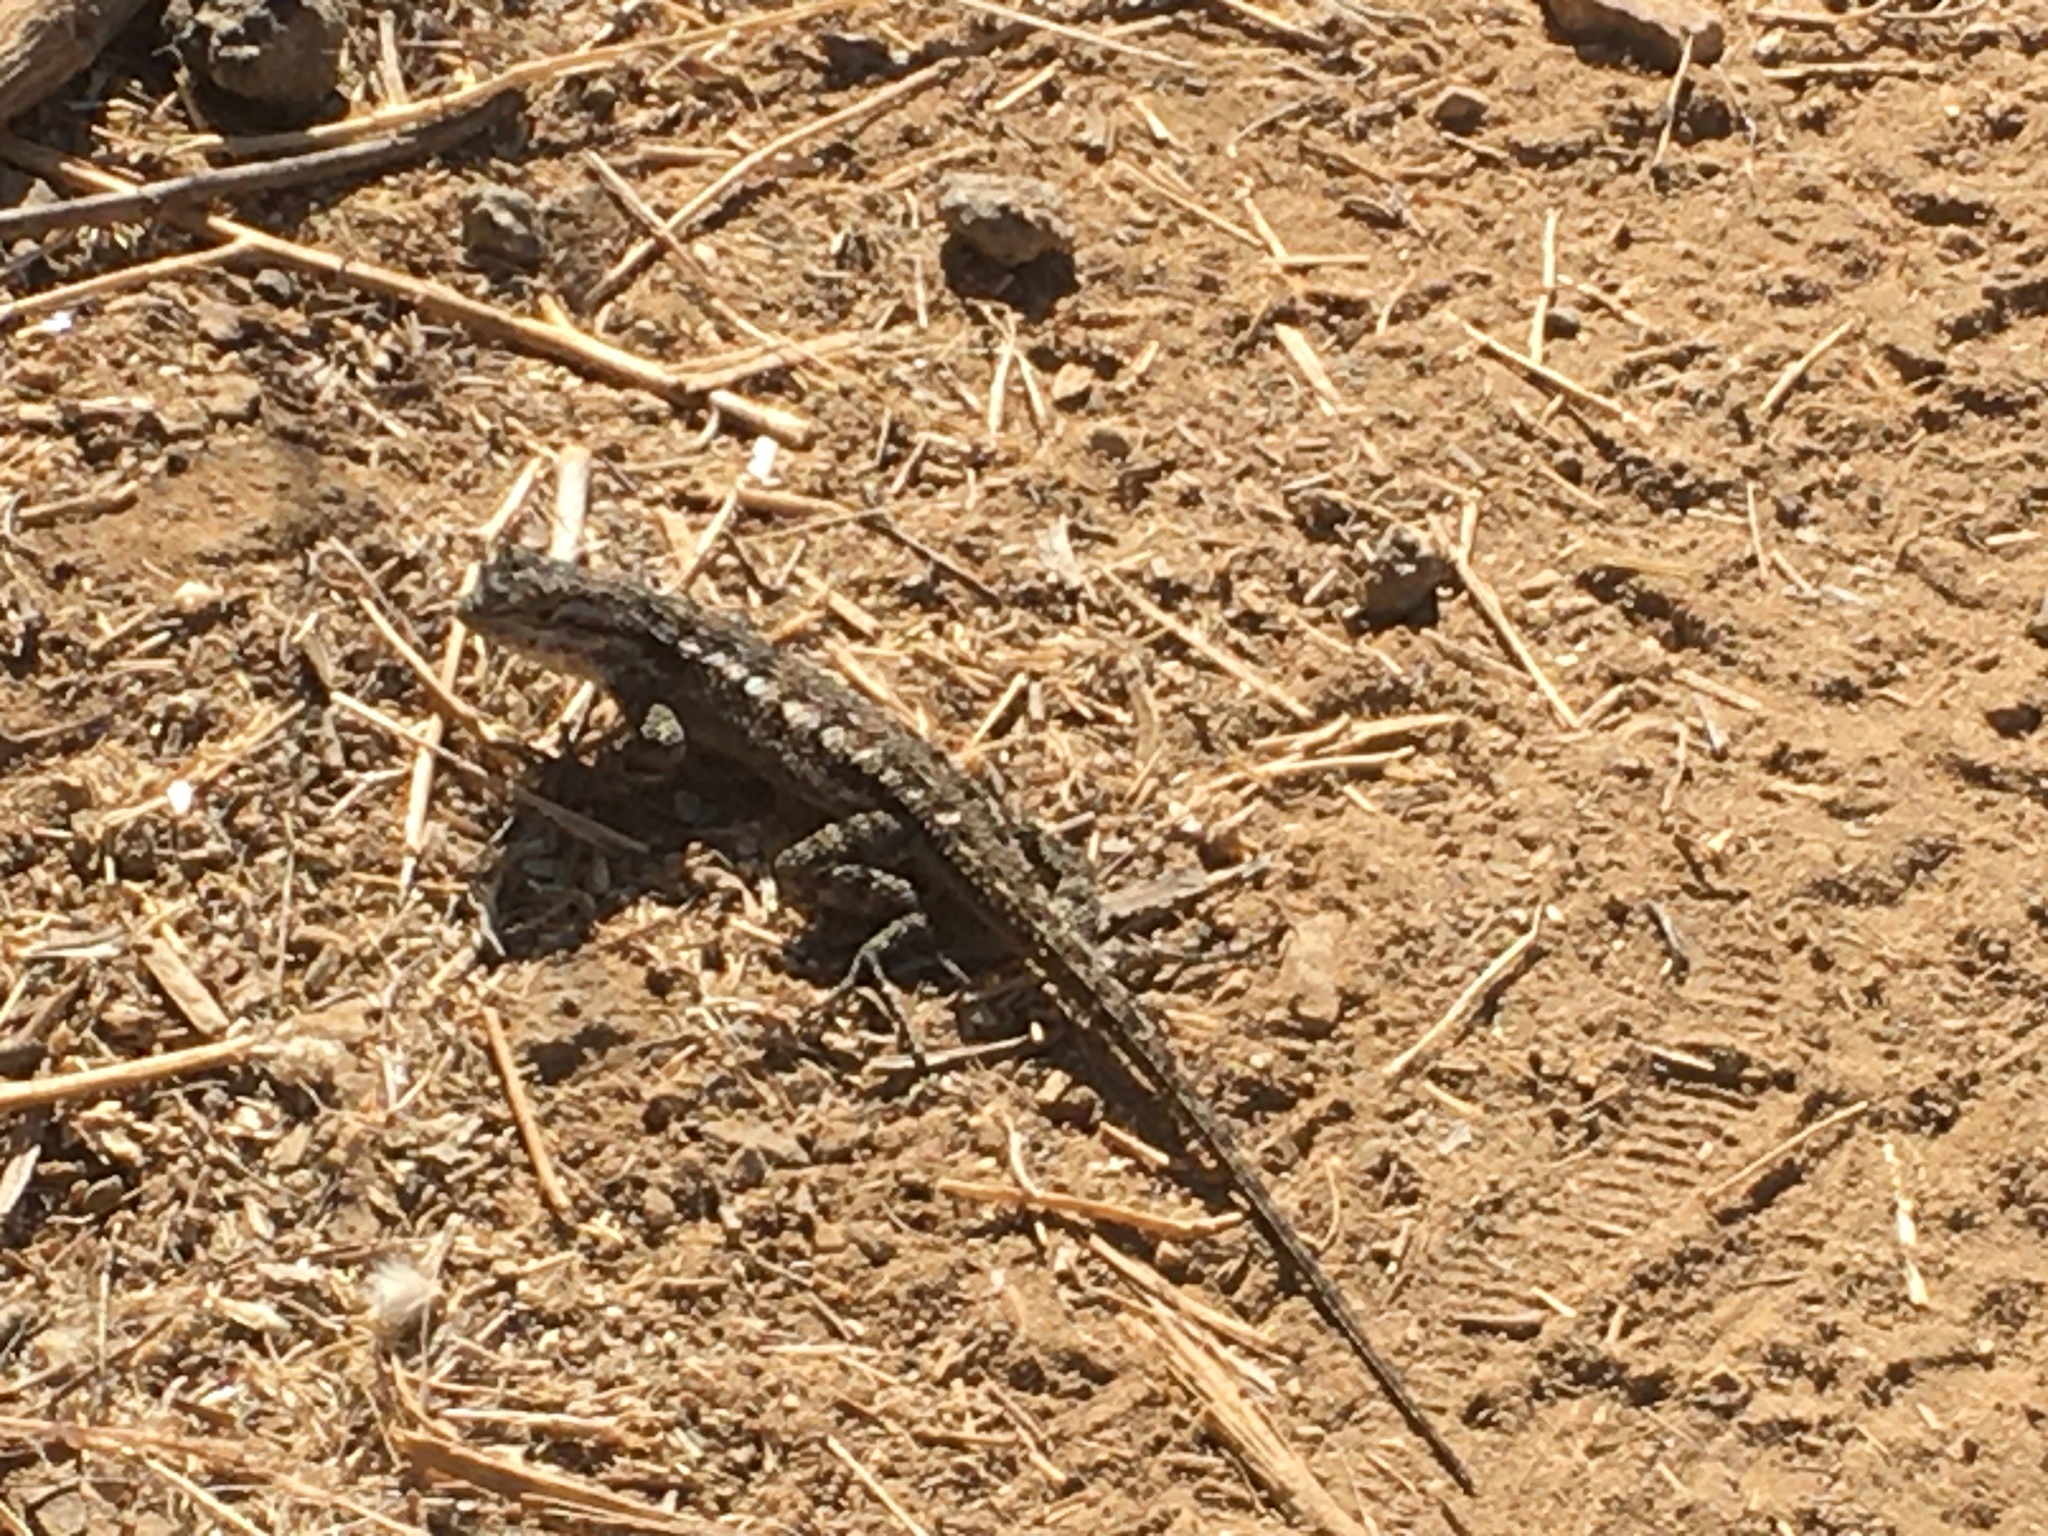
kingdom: Animalia
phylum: Chordata
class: Squamata
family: Phrynosomatidae
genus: Sceloporus
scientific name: Sceloporus occidentalis
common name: Western fence lizard
